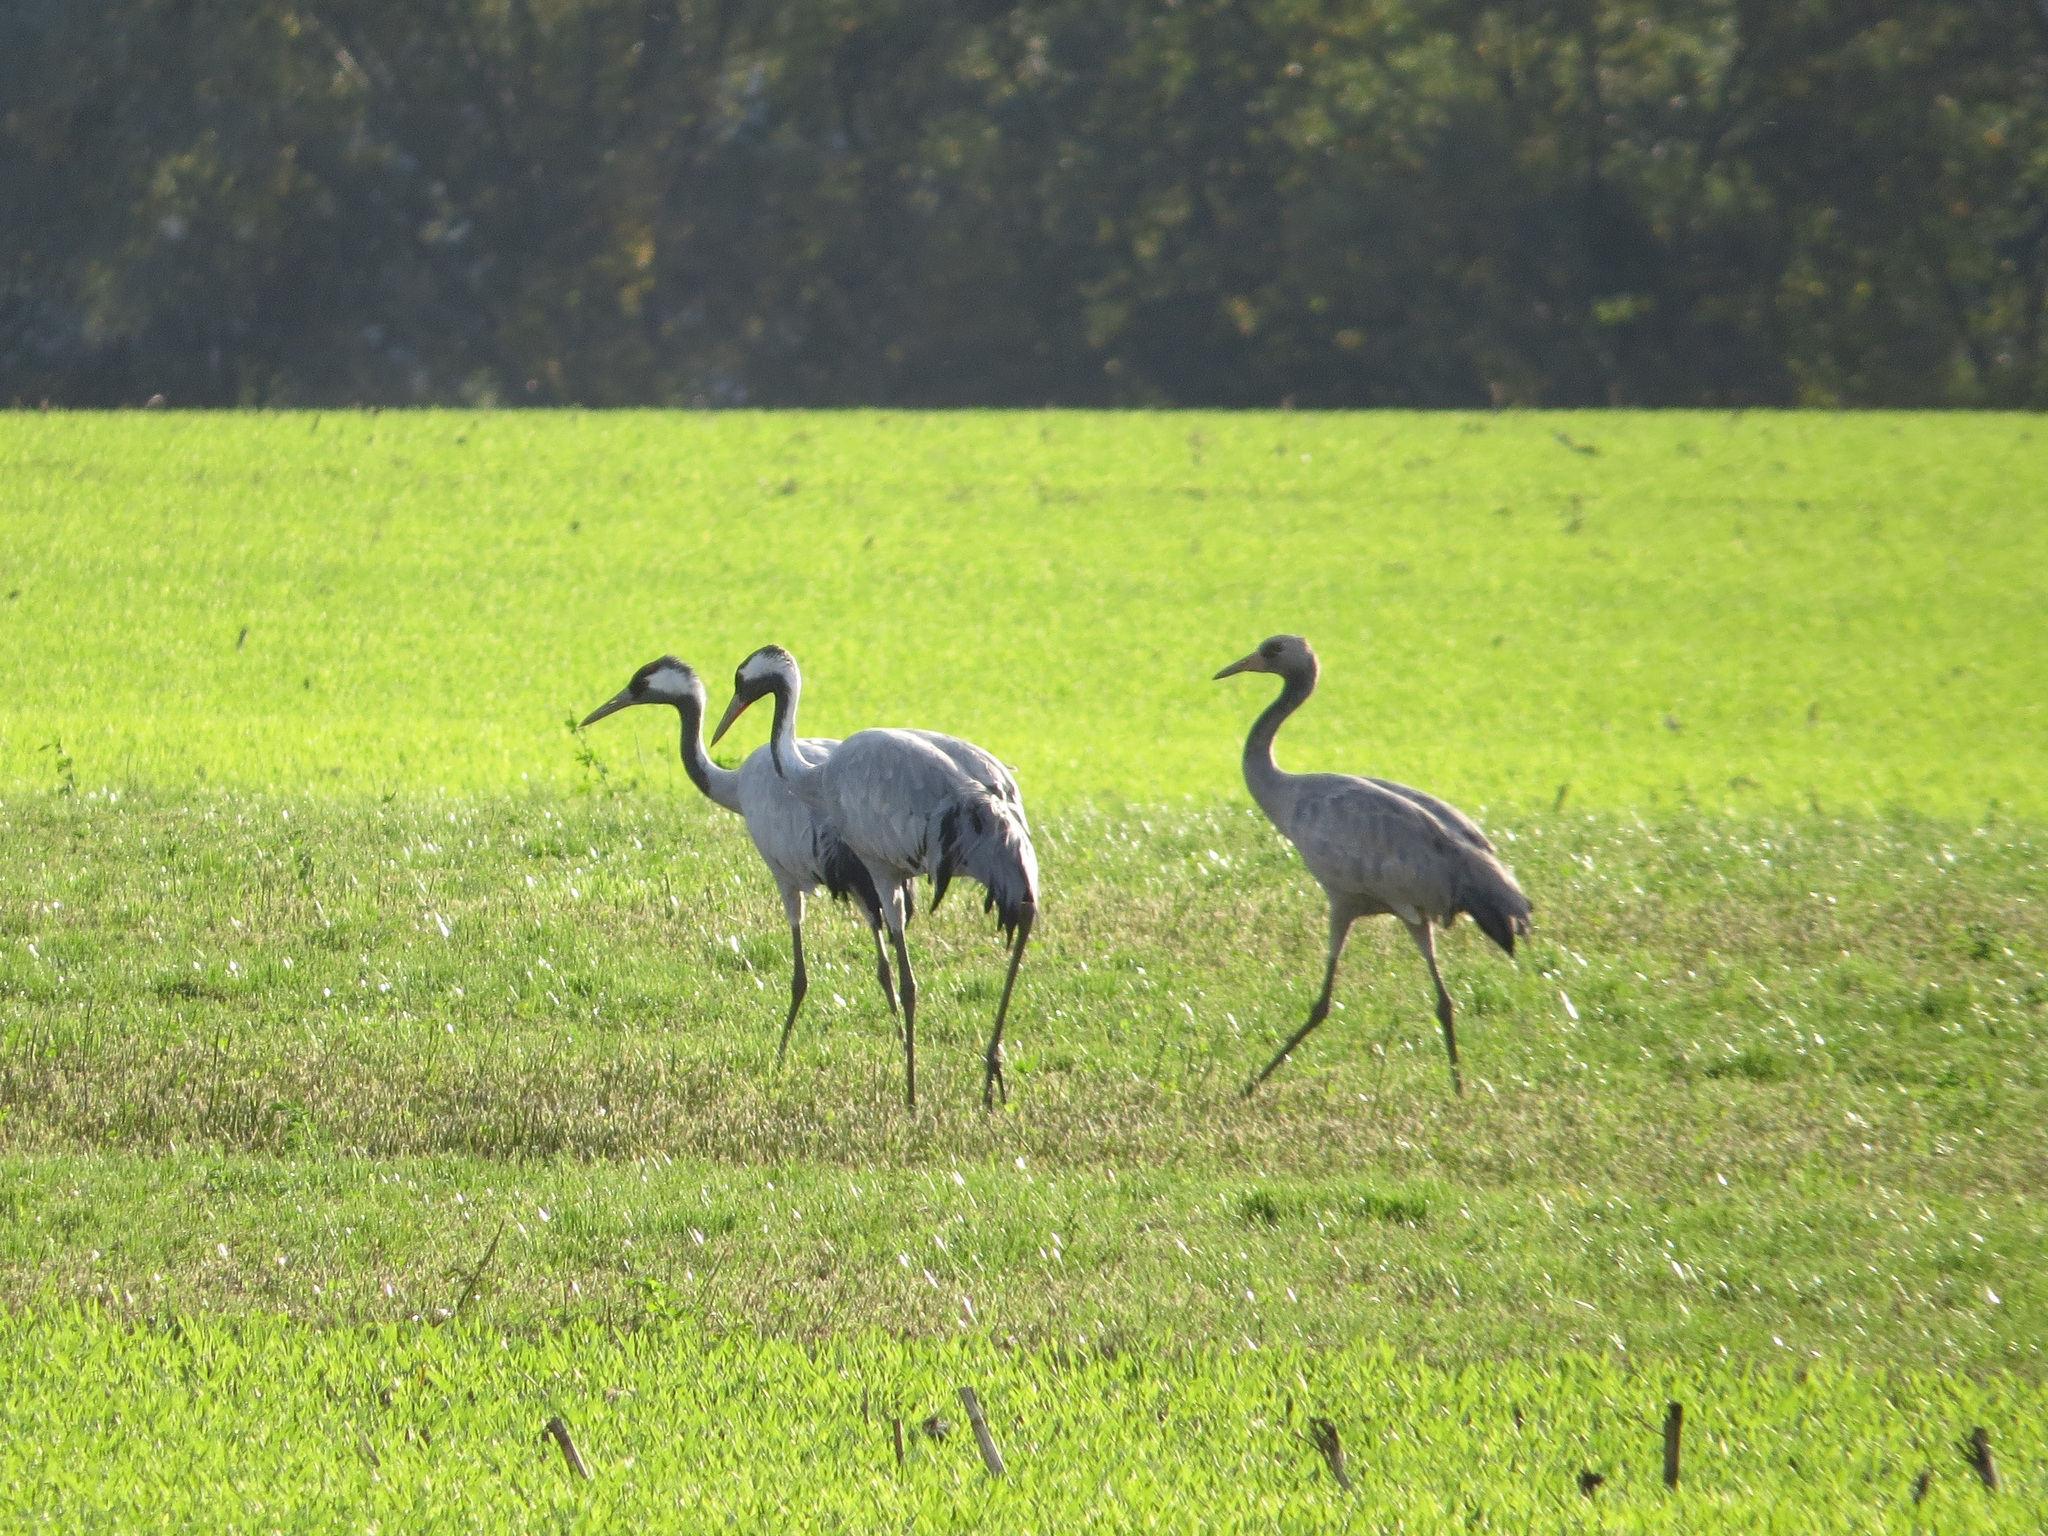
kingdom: Animalia
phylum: Chordata
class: Aves
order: Gruiformes
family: Gruidae
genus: Grus
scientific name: Grus grus
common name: Common crane
